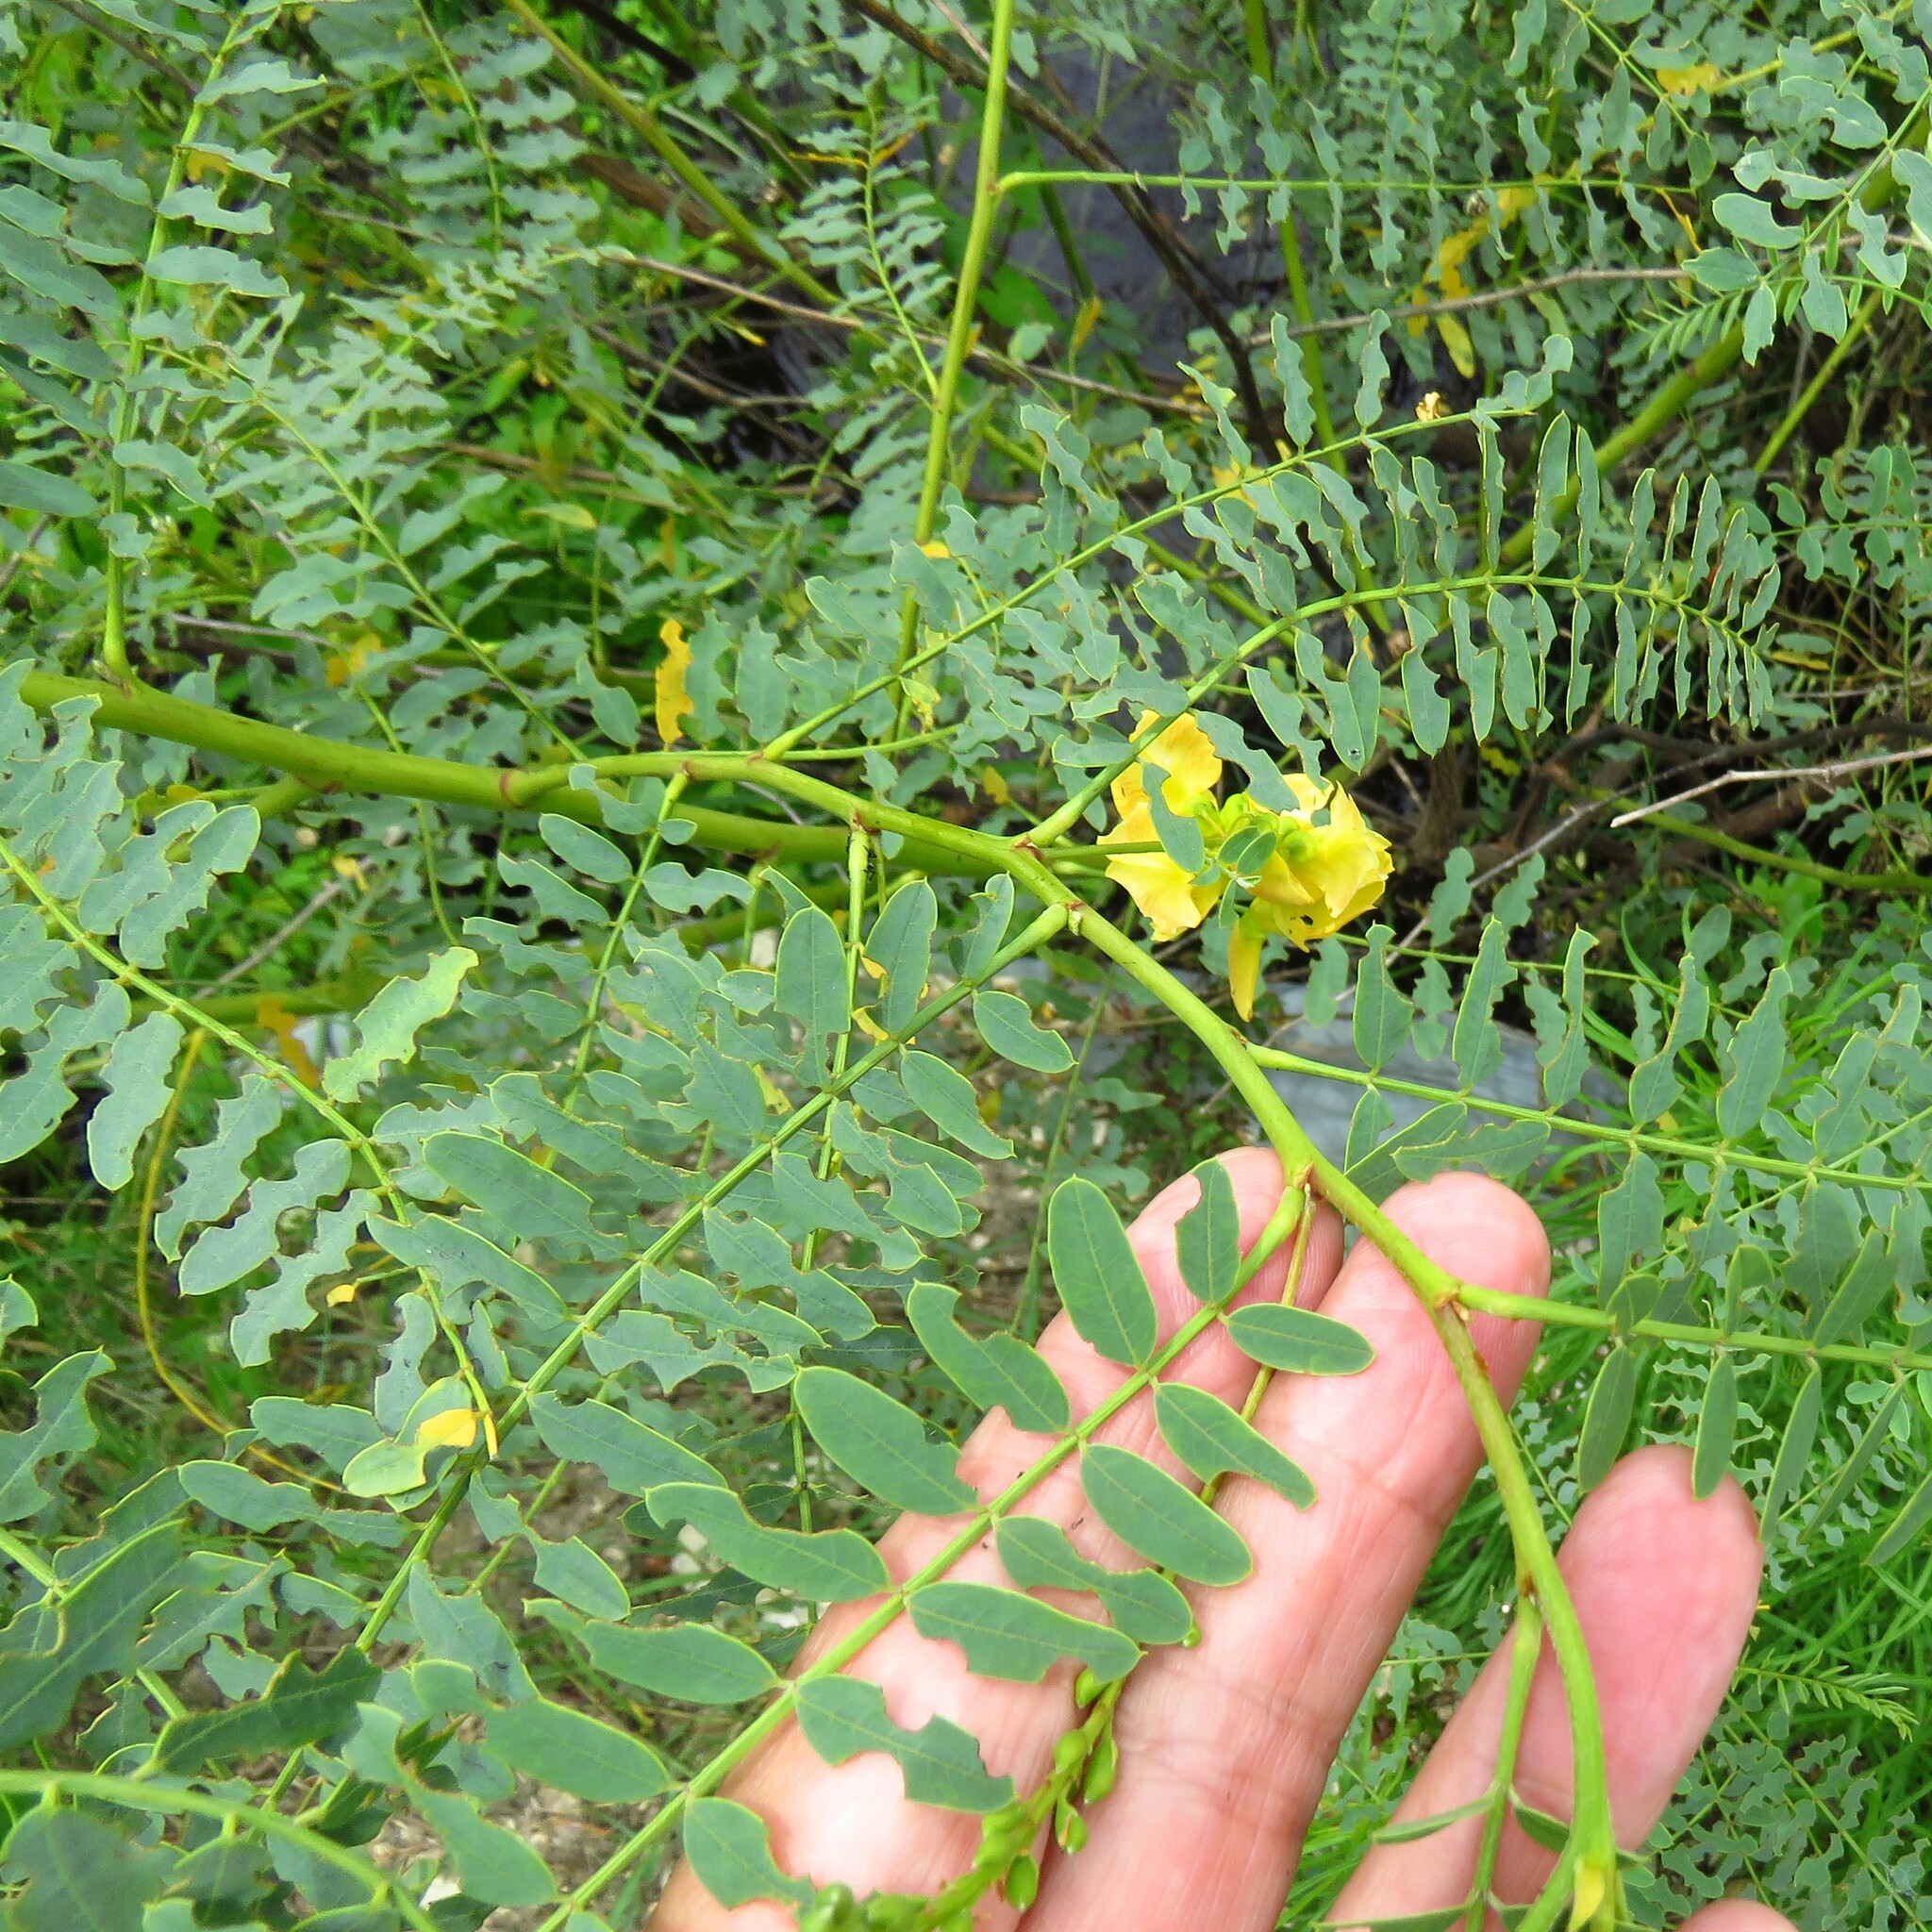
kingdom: Plantae
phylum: Tracheophyta
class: Magnoliopsida
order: Fabales
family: Fabaceae
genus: Sesbania
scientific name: Sesbania drummondii
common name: Poison-bean
